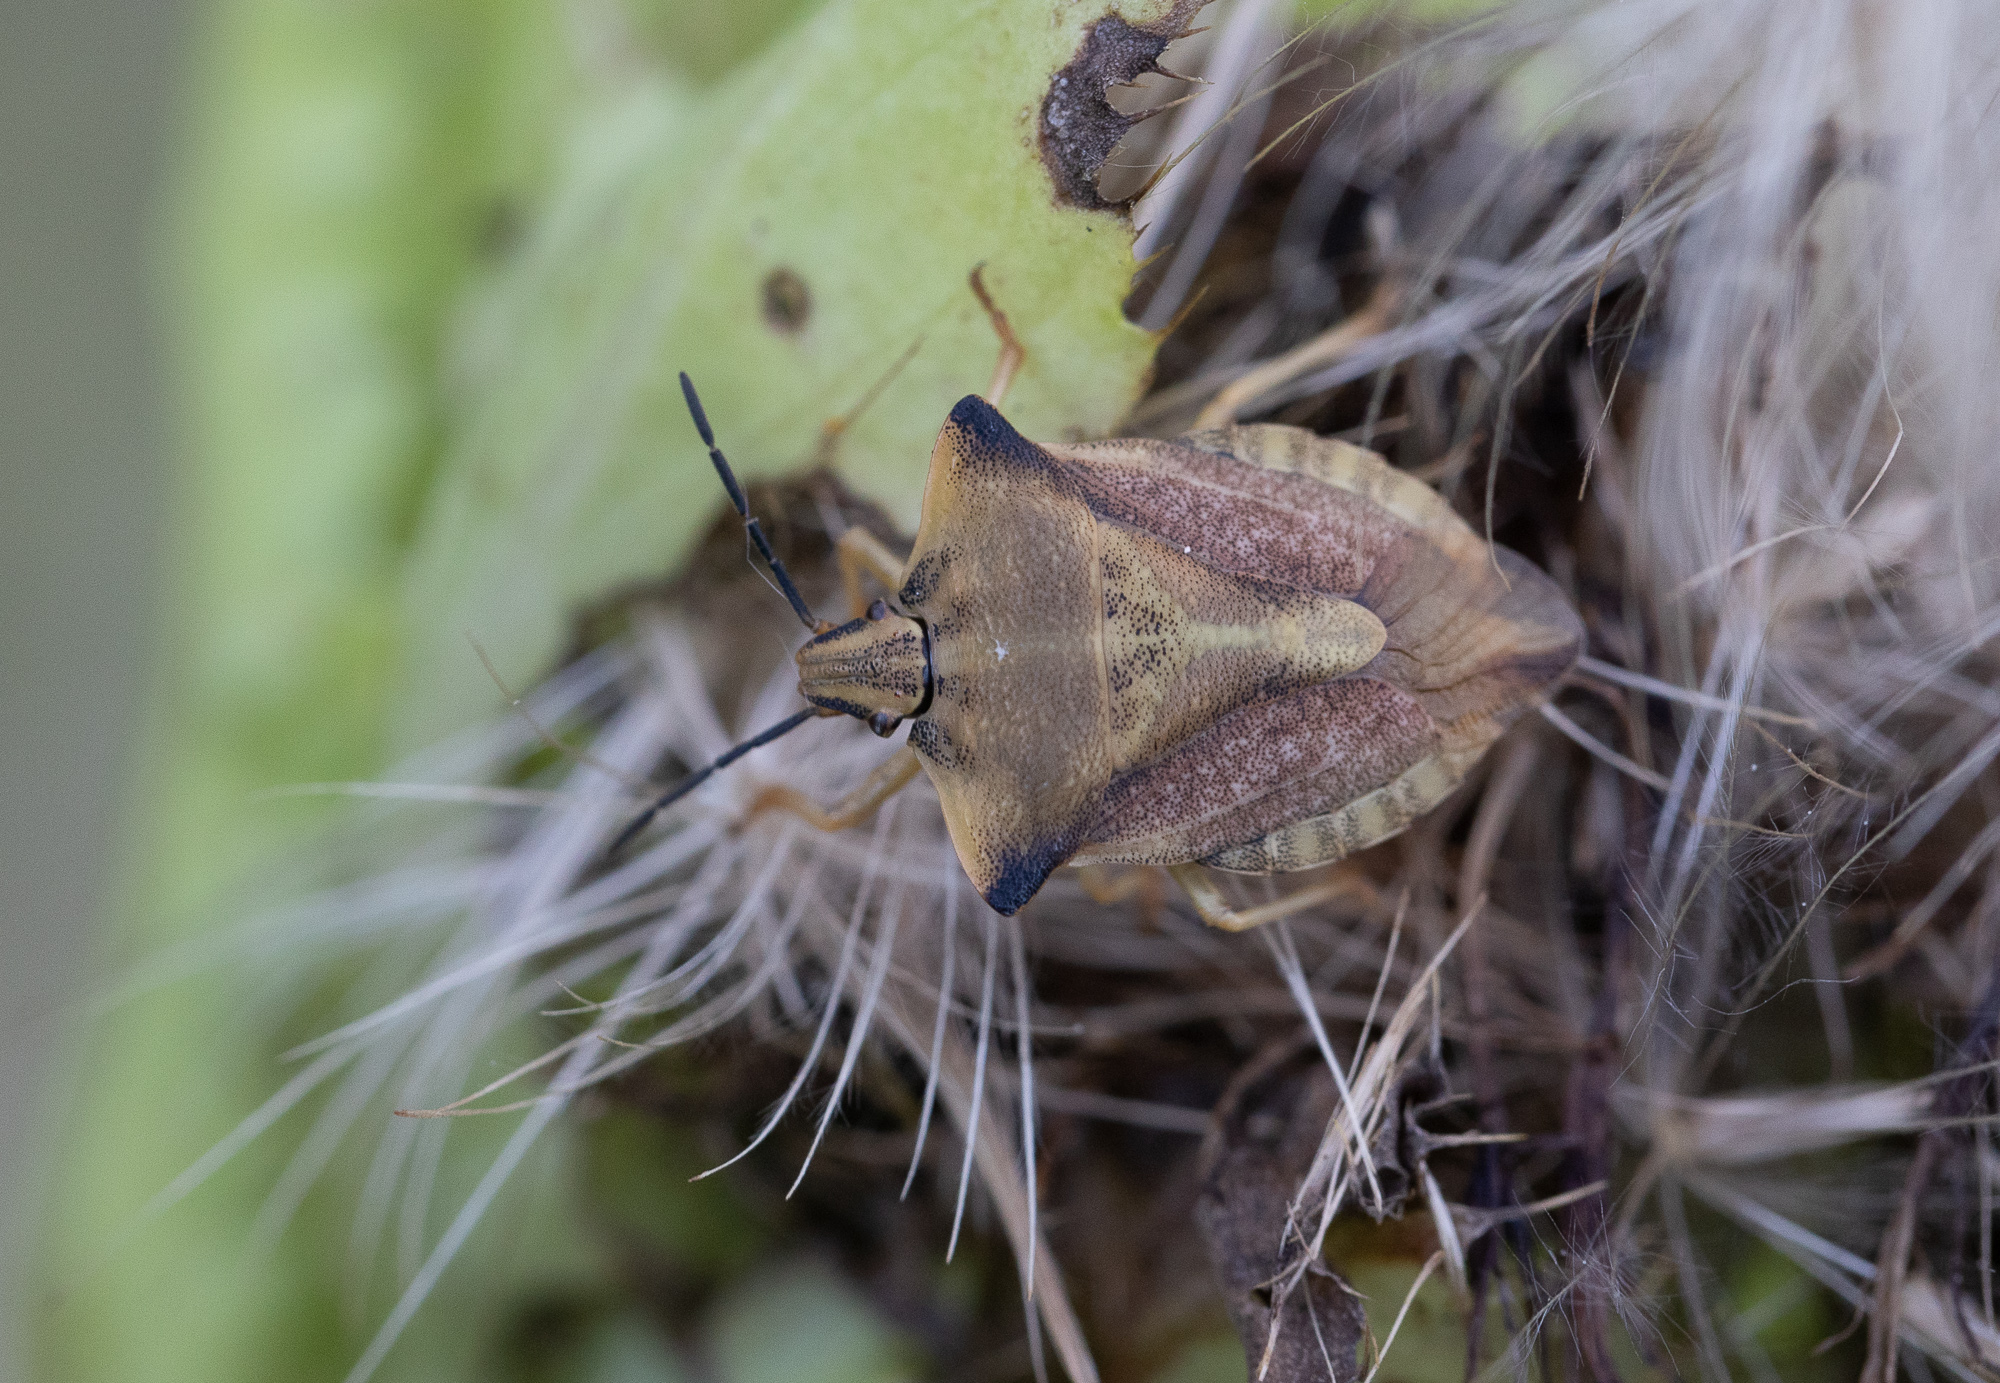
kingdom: Animalia
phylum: Arthropoda
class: Insecta
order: Hemiptera
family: Pentatomidae
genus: Carpocoris
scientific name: Carpocoris fuscispinus
